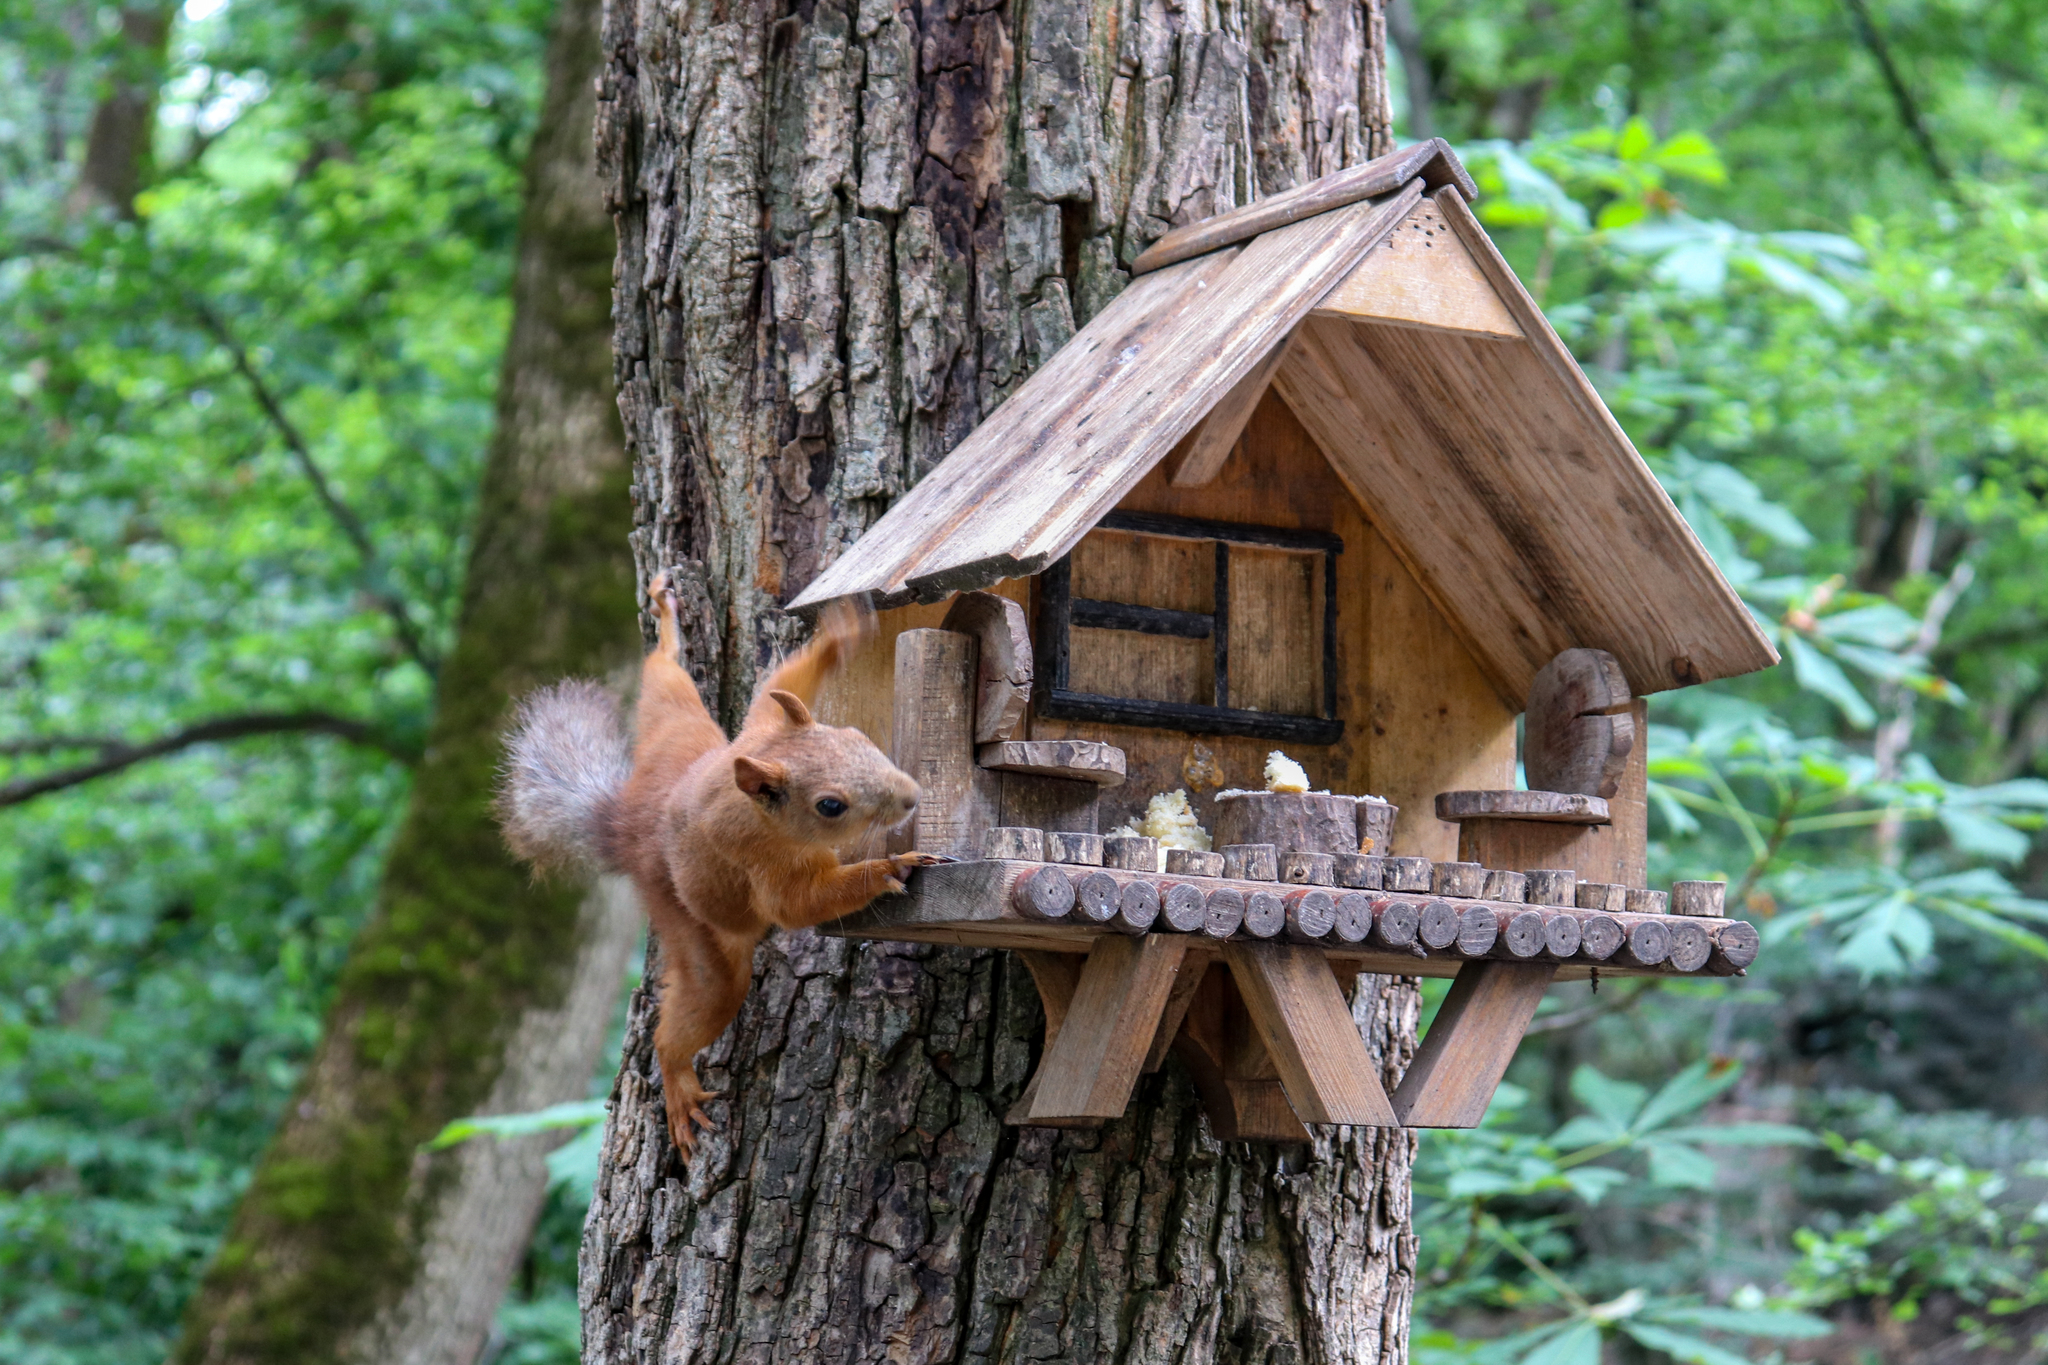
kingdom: Animalia
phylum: Chordata
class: Mammalia
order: Rodentia
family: Sciuridae
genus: Sciurus
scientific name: Sciurus vulgaris
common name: Eurasian red squirrel
